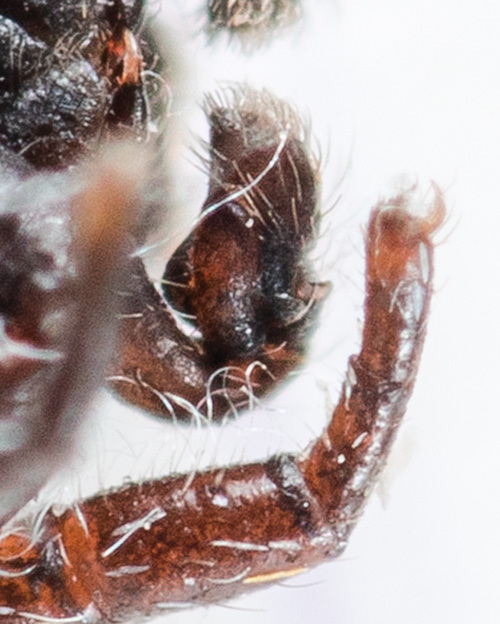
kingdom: Animalia
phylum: Arthropoda
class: Arachnida
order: Araneae
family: Salticidae
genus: Pseudomogrus
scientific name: Pseudomogrus bactrianus
